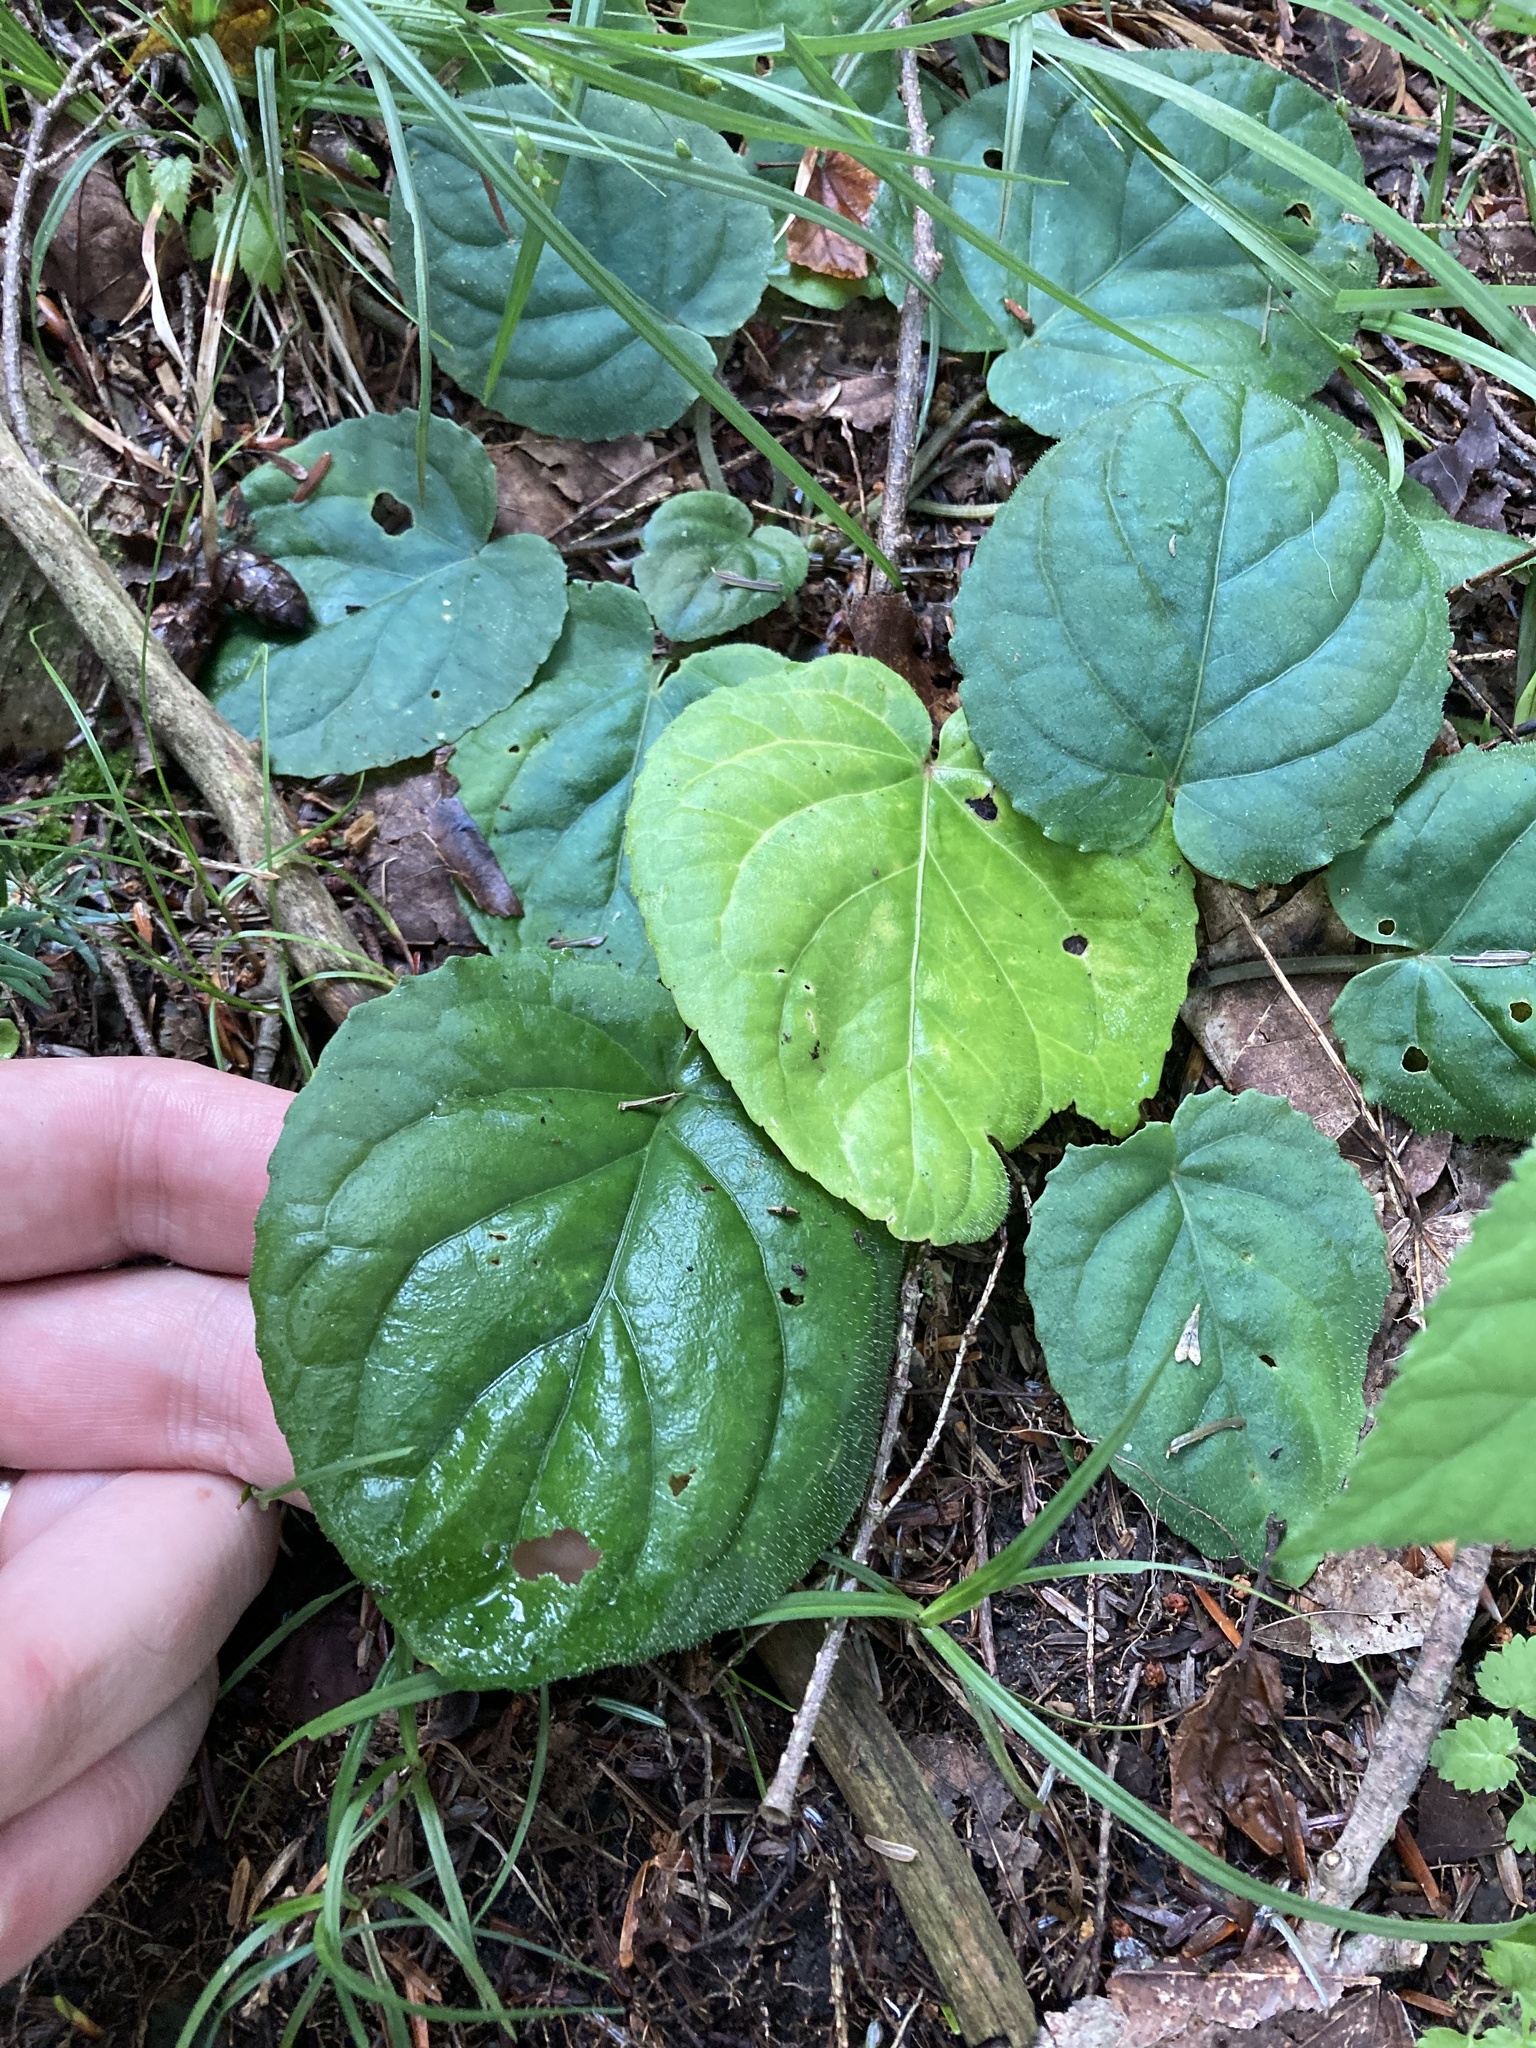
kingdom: Plantae
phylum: Tracheophyta
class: Magnoliopsida
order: Malpighiales
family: Violaceae
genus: Viola
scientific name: Viola rotundifolia
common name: Early yellow violet
